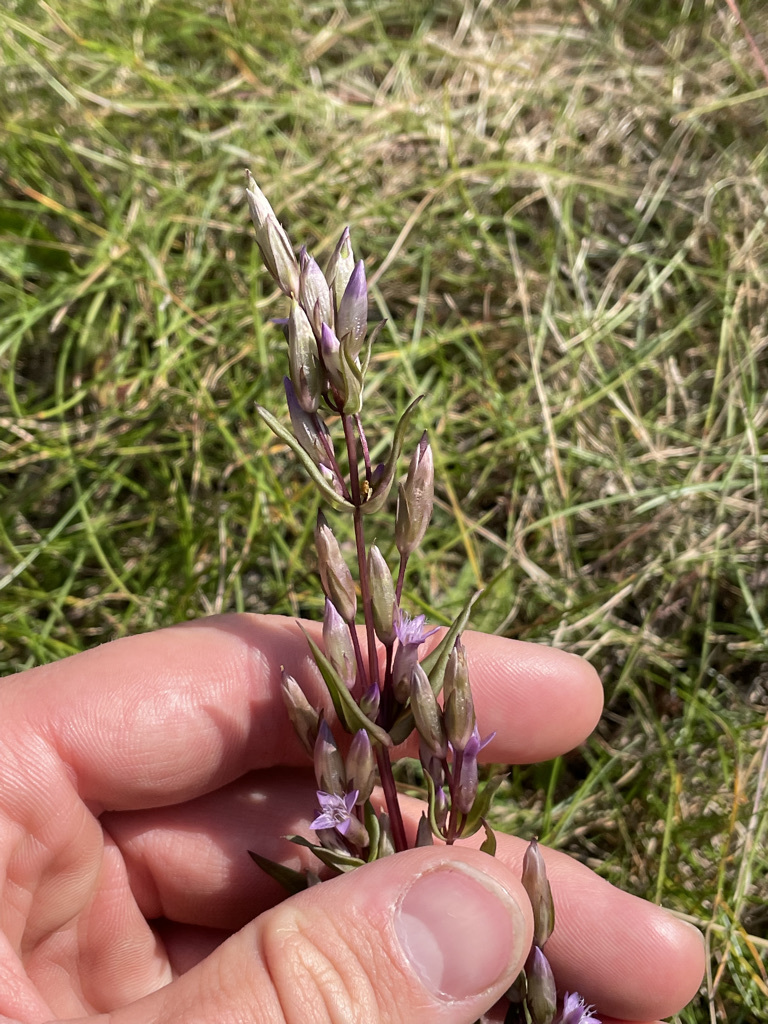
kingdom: Plantae
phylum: Tracheophyta
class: Magnoliopsida
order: Gentianales
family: Gentianaceae
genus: Gentianella
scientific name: Gentianella amarella
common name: Autumn gentian
